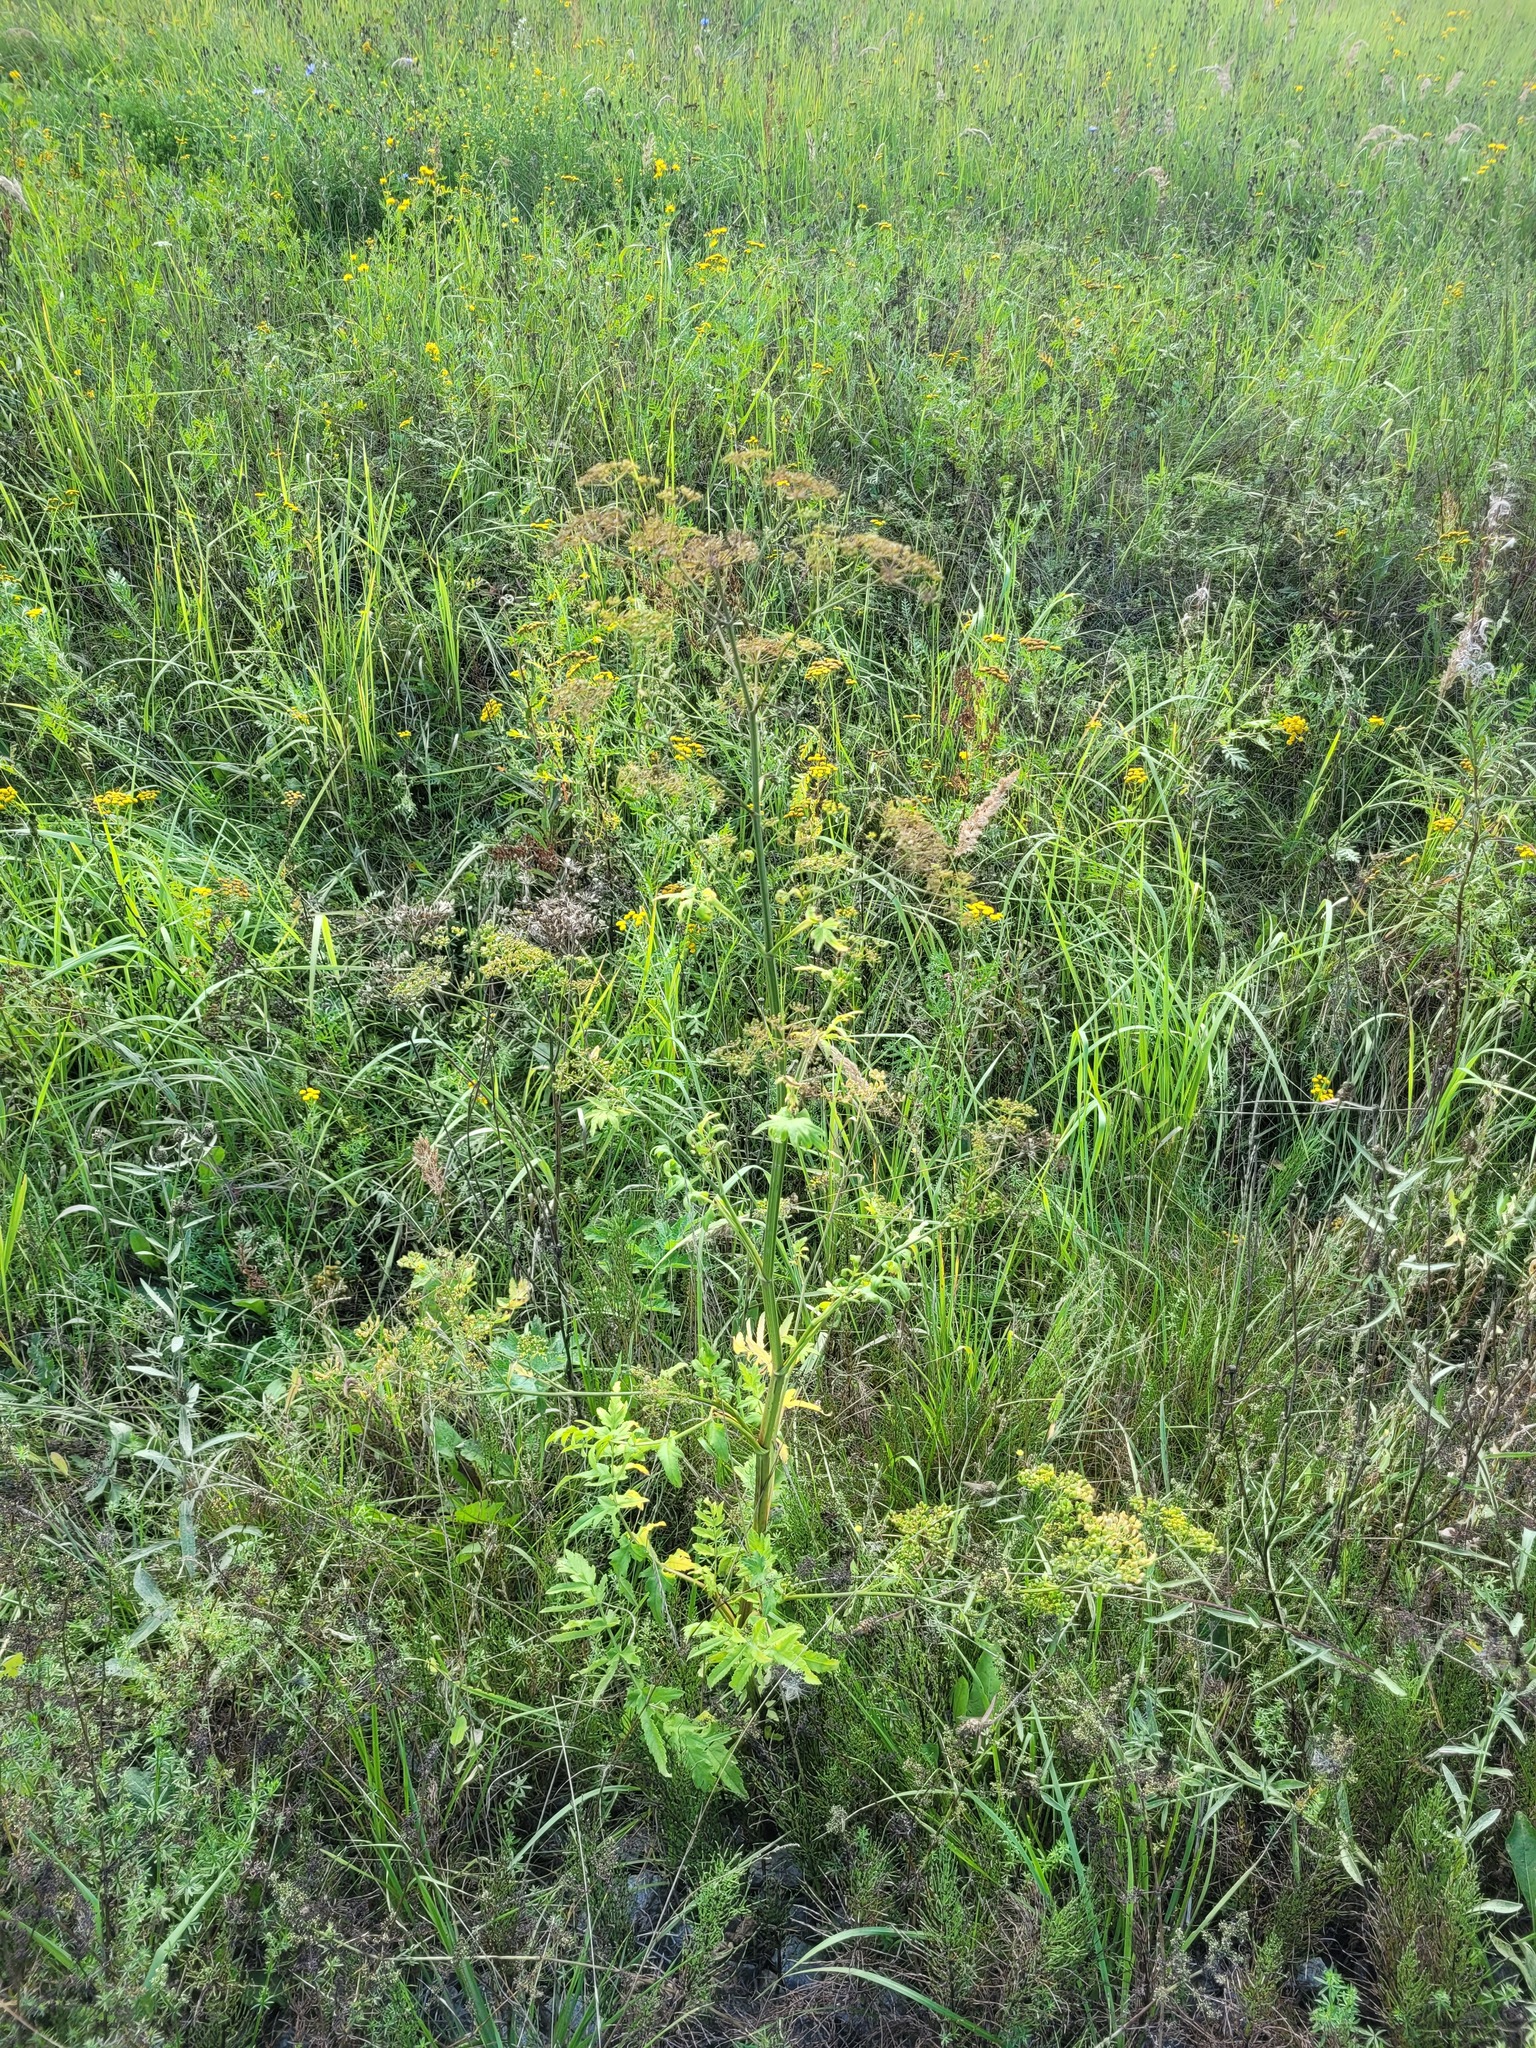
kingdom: Plantae
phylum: Tracheophyta
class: Magnoliopsida
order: Apiales
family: Apiaceae
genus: Pastinaca
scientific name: Pastinaca sativa
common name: Wild parsnip
